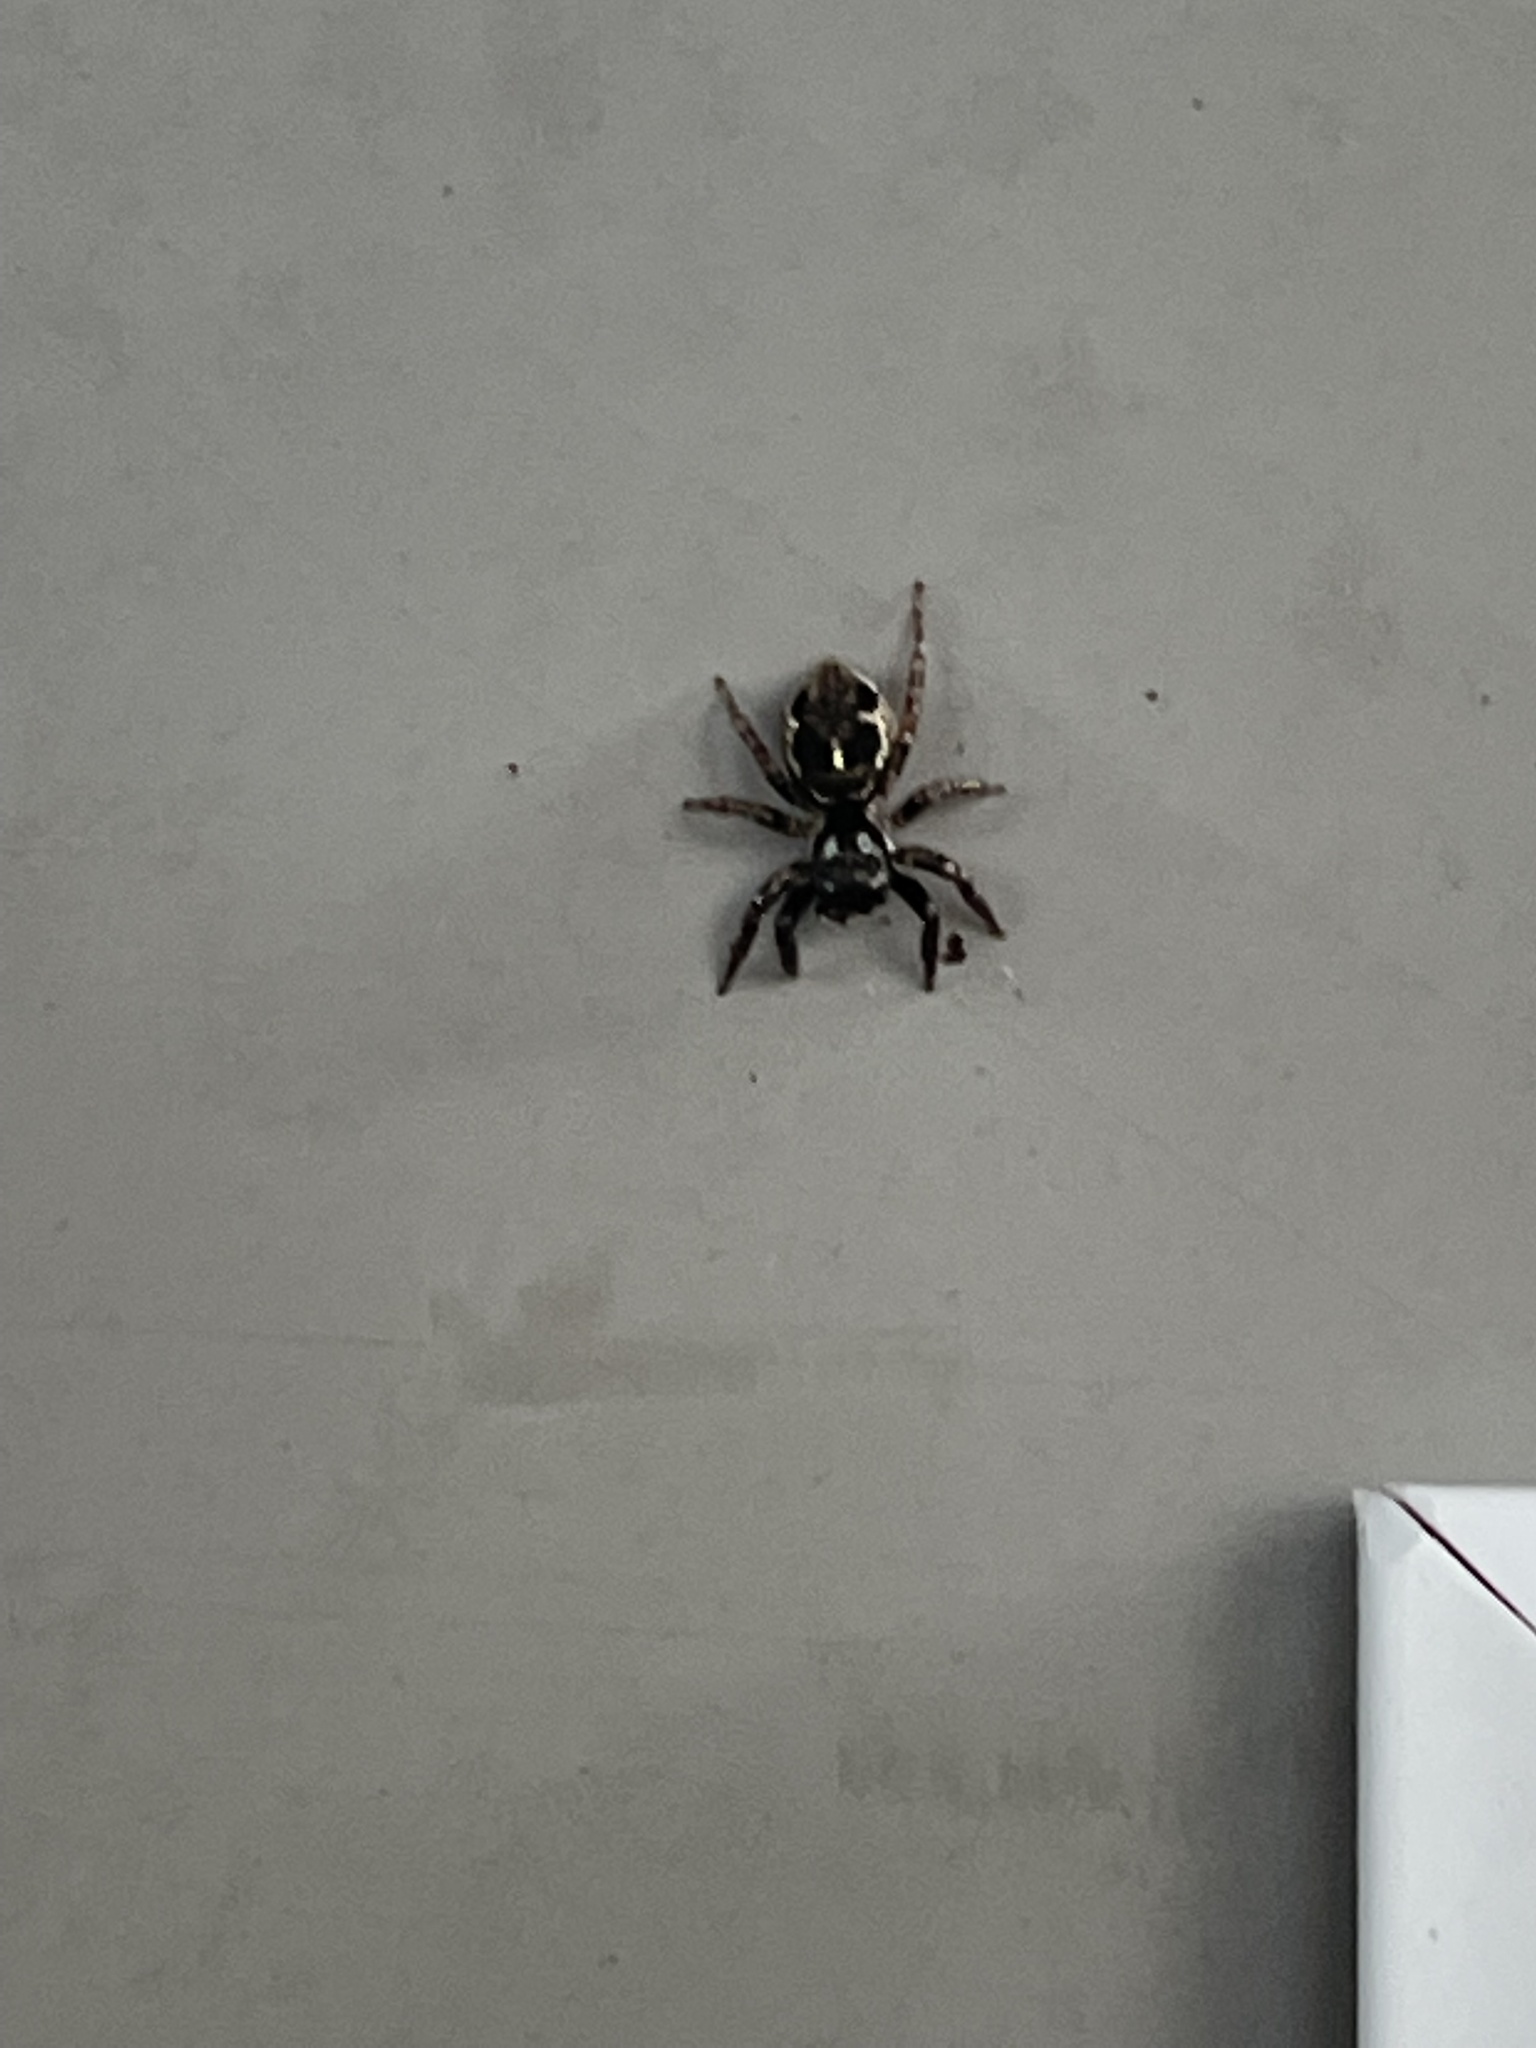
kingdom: Animalia
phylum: Arthropoda
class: Arachnida
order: Araneae
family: Salticidae
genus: Anasaitis
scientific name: Anasaitis canosa
